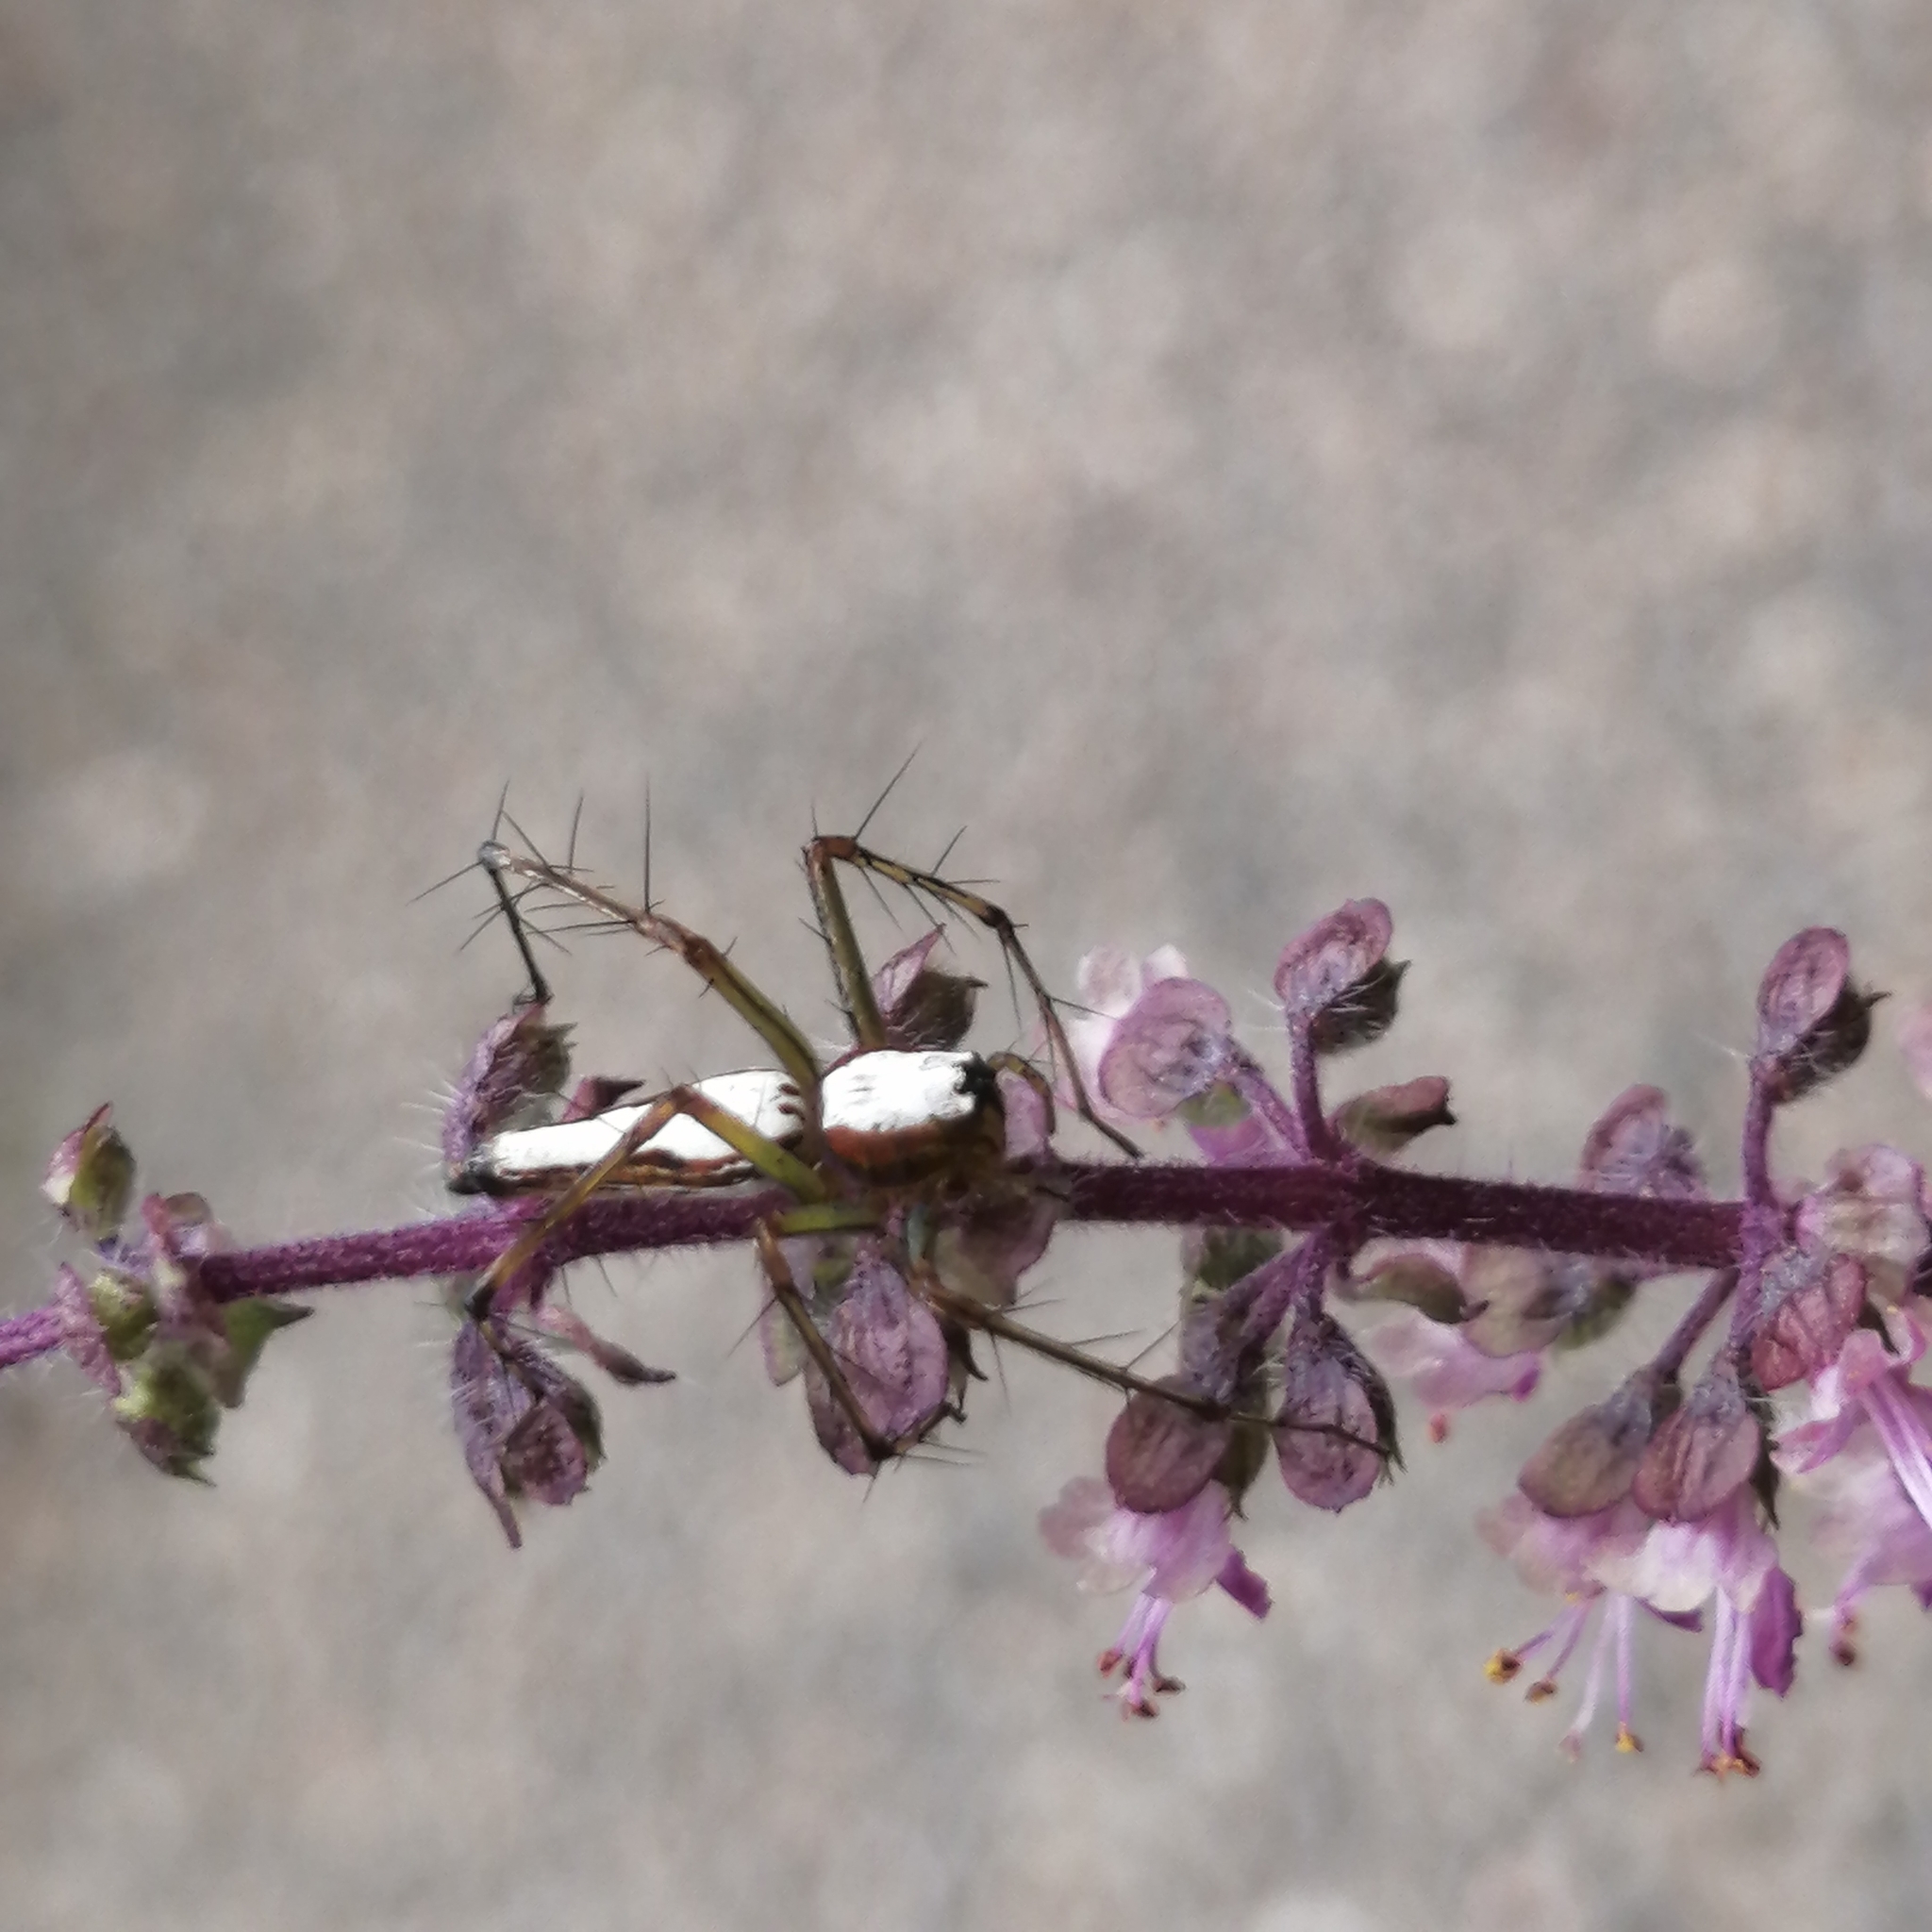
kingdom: Animalia
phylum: Arthropoda
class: Arachnida
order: Araneae
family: Oxyopidae
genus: Oxyopes
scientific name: Oxyopes shweta
